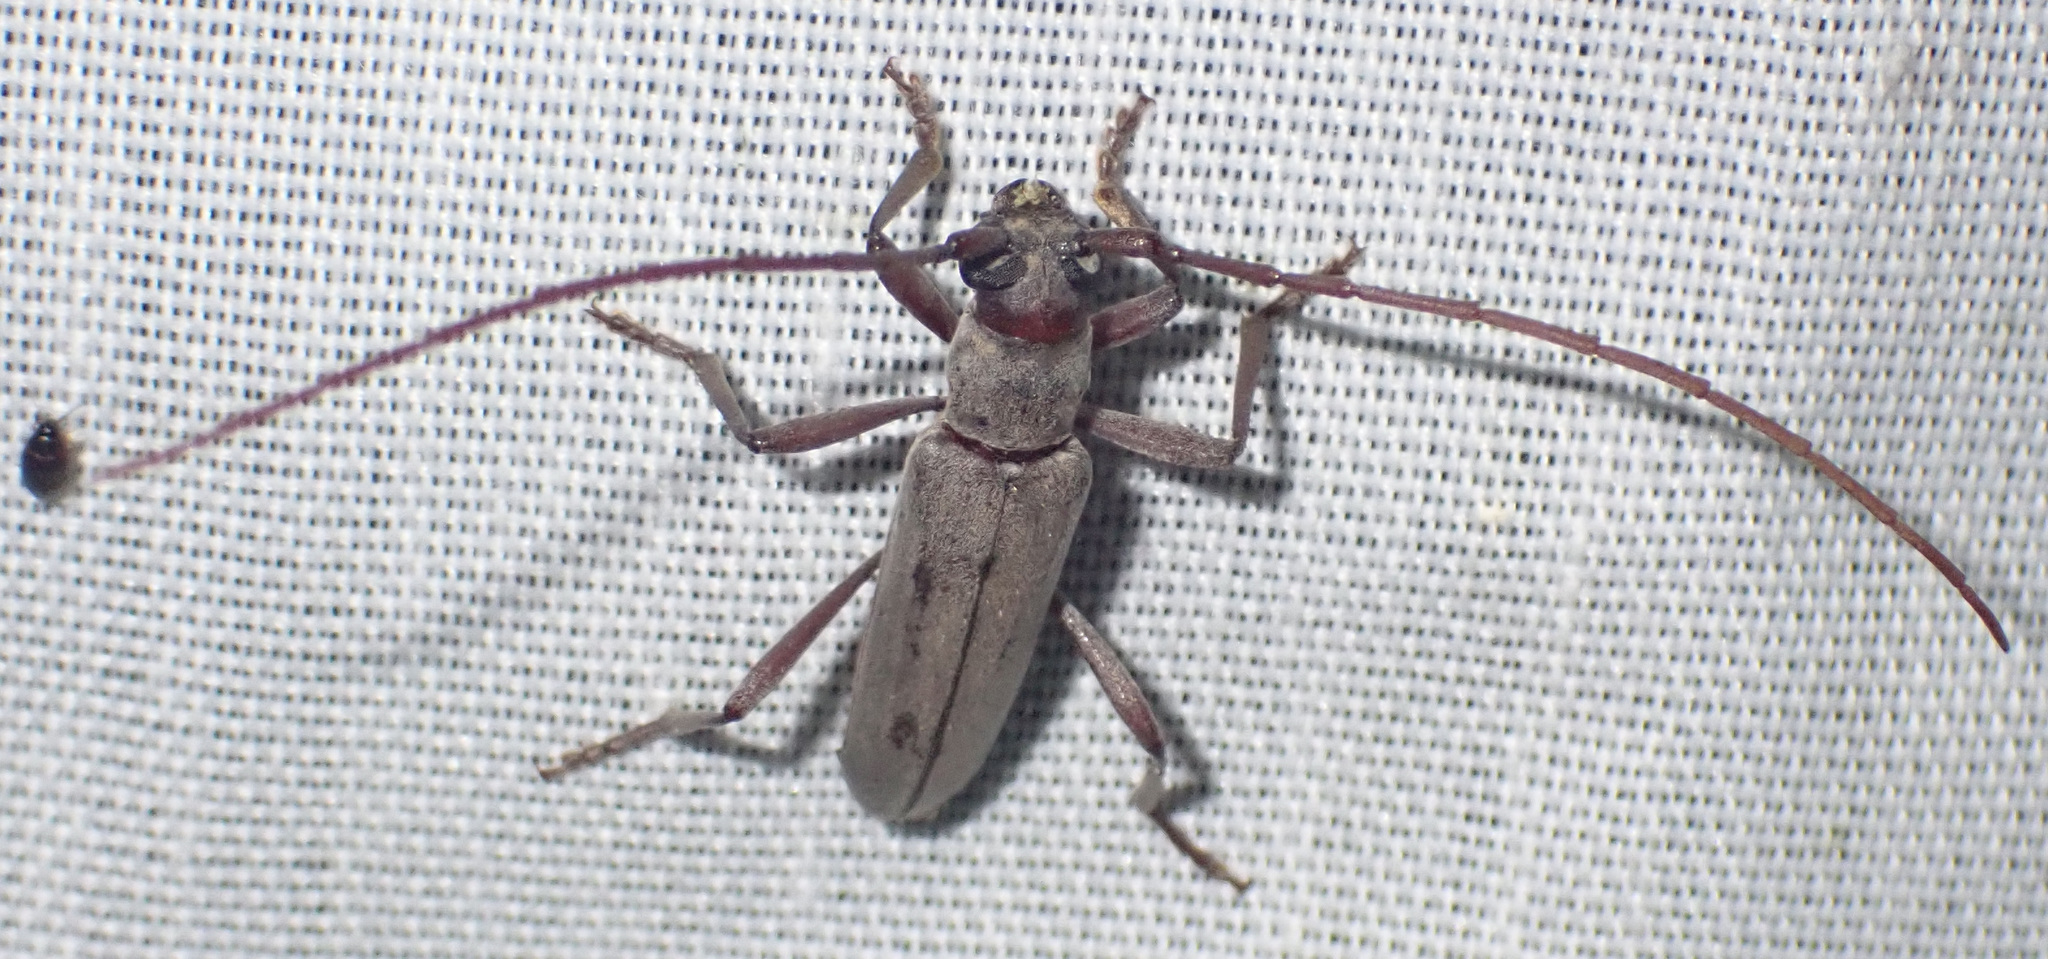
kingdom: Animalia
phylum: Arthropoda
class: Insecta
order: Coleoptera
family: Cerambycidae
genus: Myrsinus
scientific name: Myrsinus modestus
